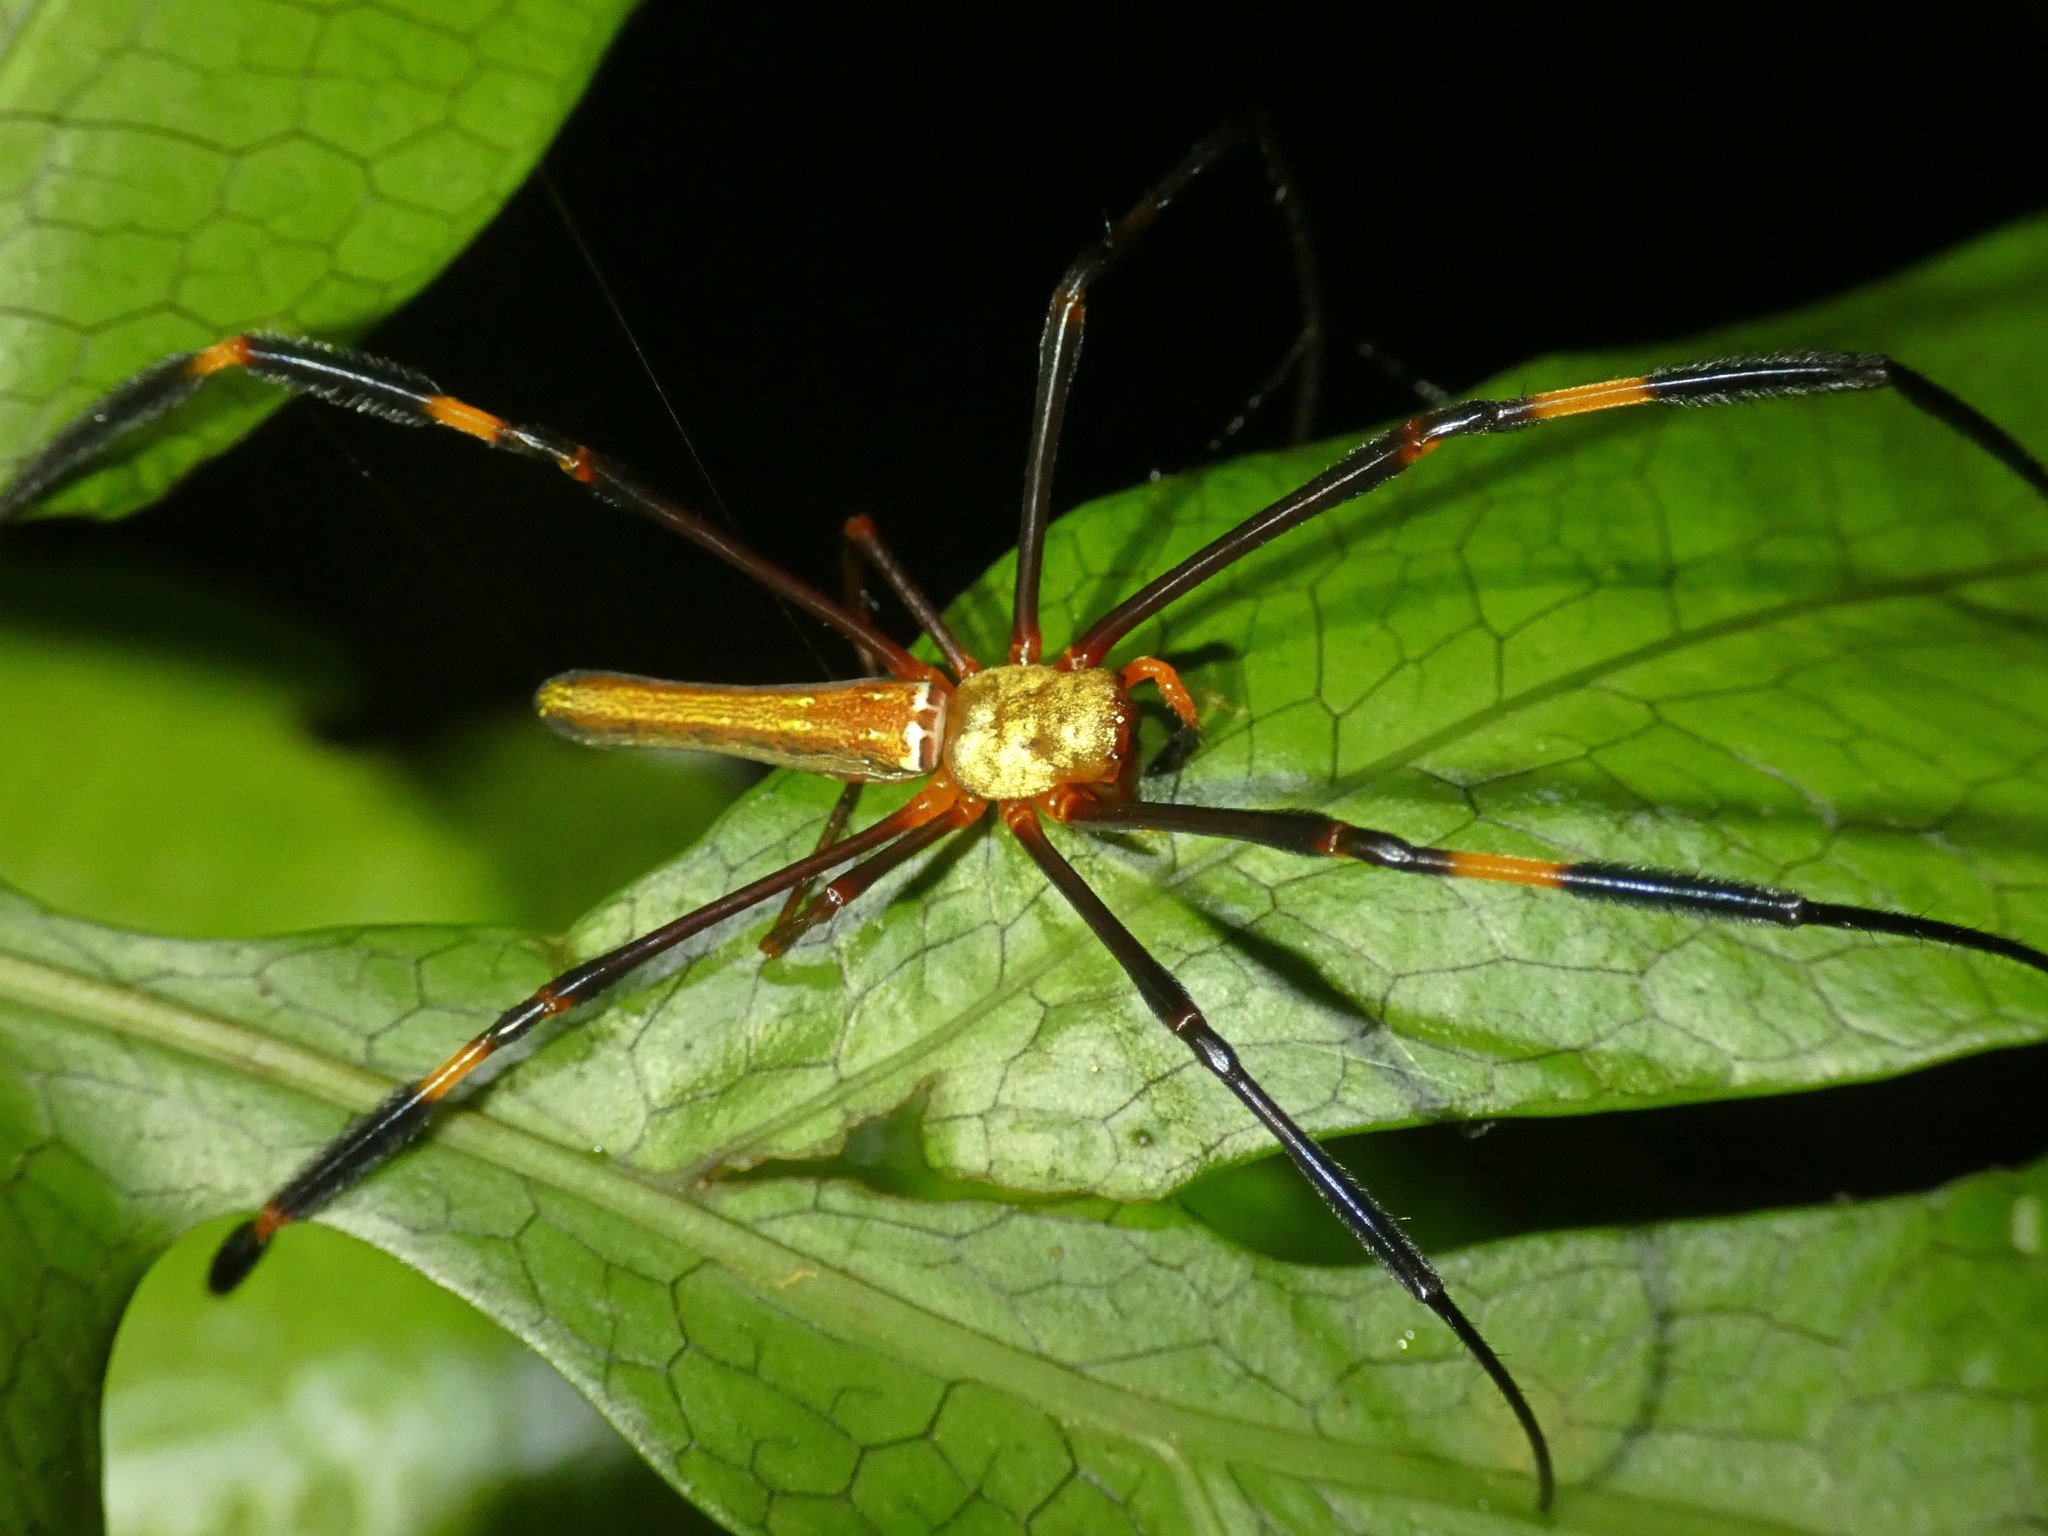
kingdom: Animalia
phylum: Arthropoda
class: Arachnida
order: Araneae
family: Araneidae
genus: Nephila
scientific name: Nephila pilipes
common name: Giant golden orb weaver
